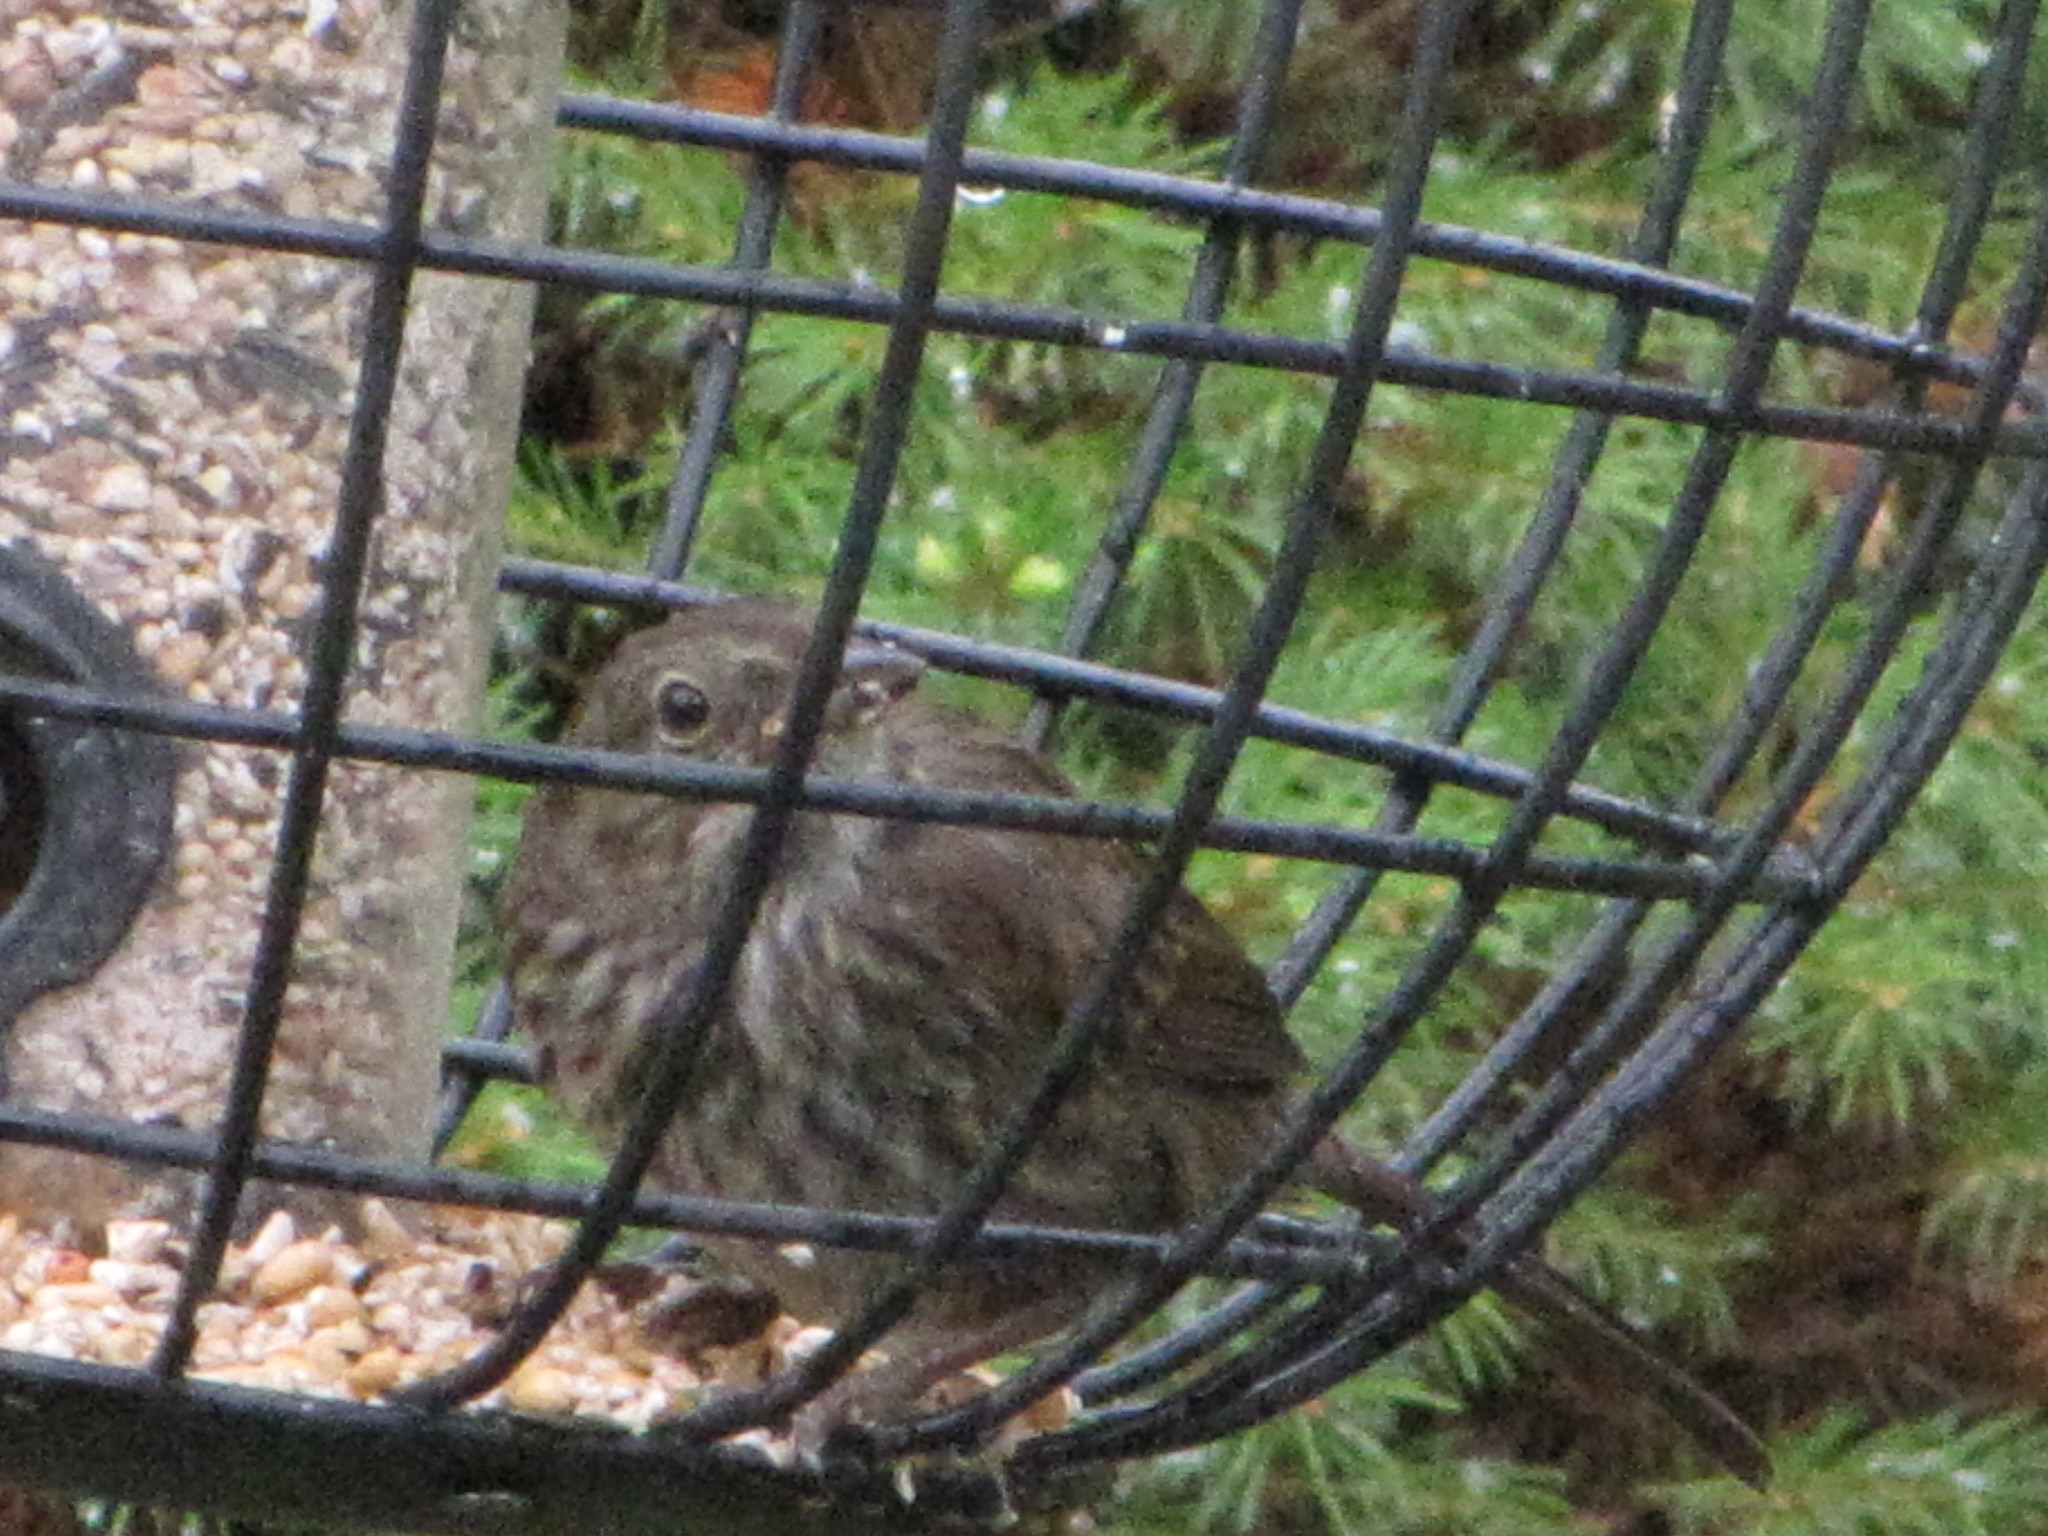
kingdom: Animalia
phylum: Chordata
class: Aves
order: Passeriformes
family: Passerellidae
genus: Melospiza
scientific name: Melospiza melodia
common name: Song sparrow
